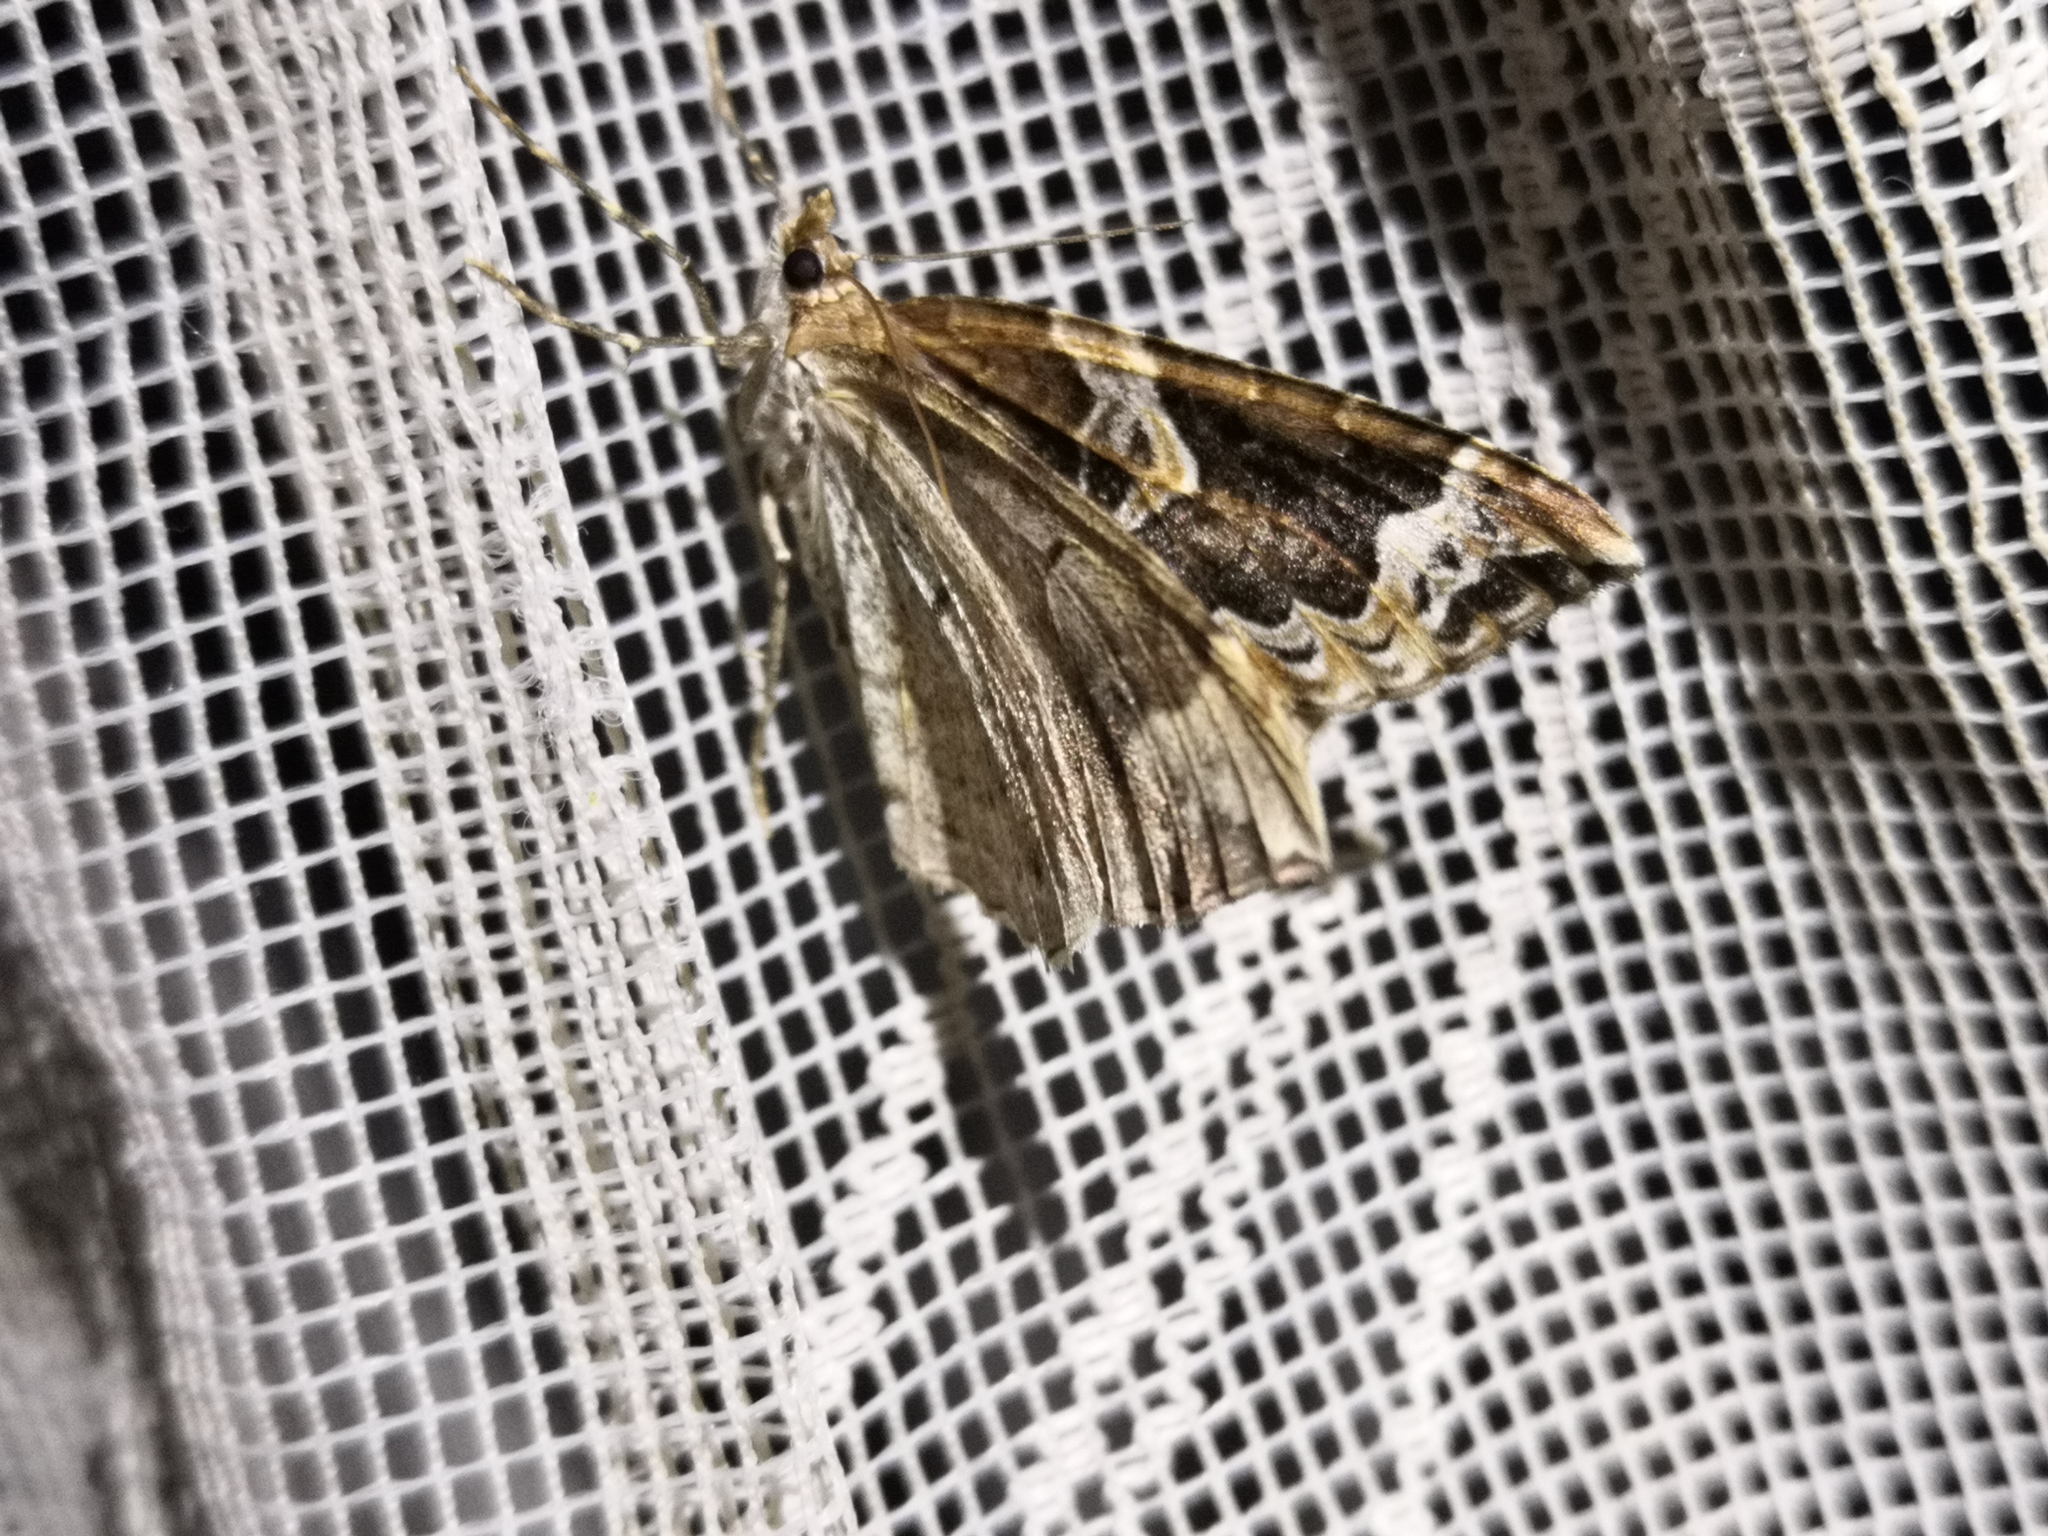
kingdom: Animalia
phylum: Arthropoda
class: Insecta
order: Lepidoptera
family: Geometridae
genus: Eulithis
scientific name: Eulithis prunata
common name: Phoenix
